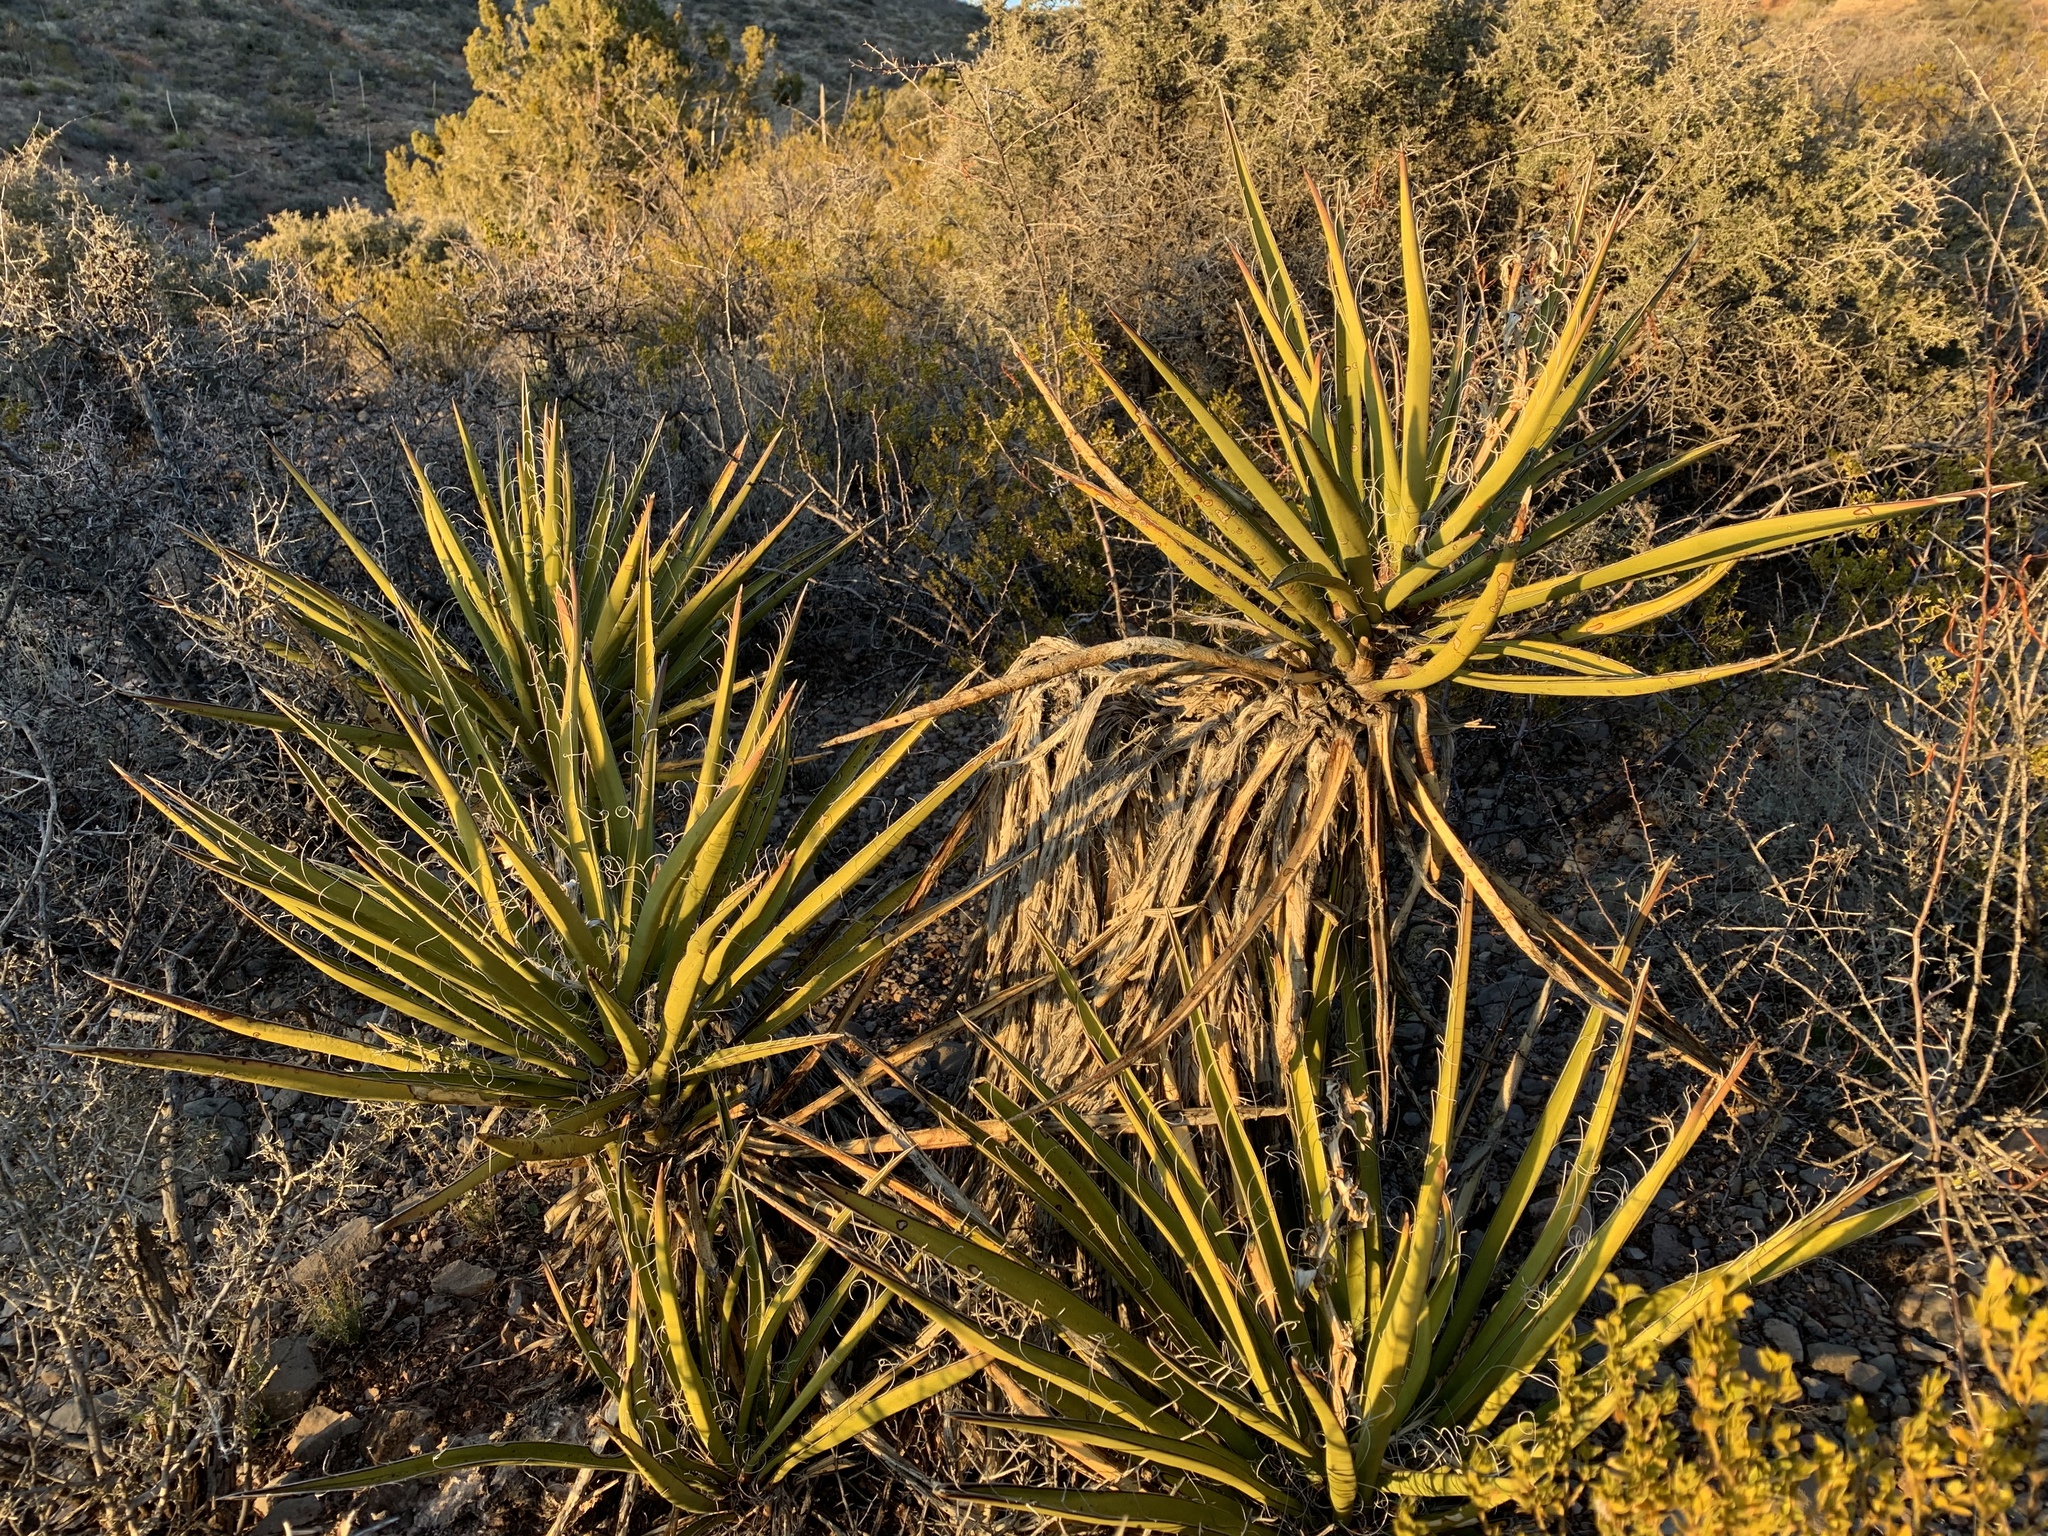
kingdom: Plantae
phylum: Tracheophyta
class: Liliopsida
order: Asparagales
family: Asparagaceae
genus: Yucca
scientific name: Yucca baccata
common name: Banana yucca
